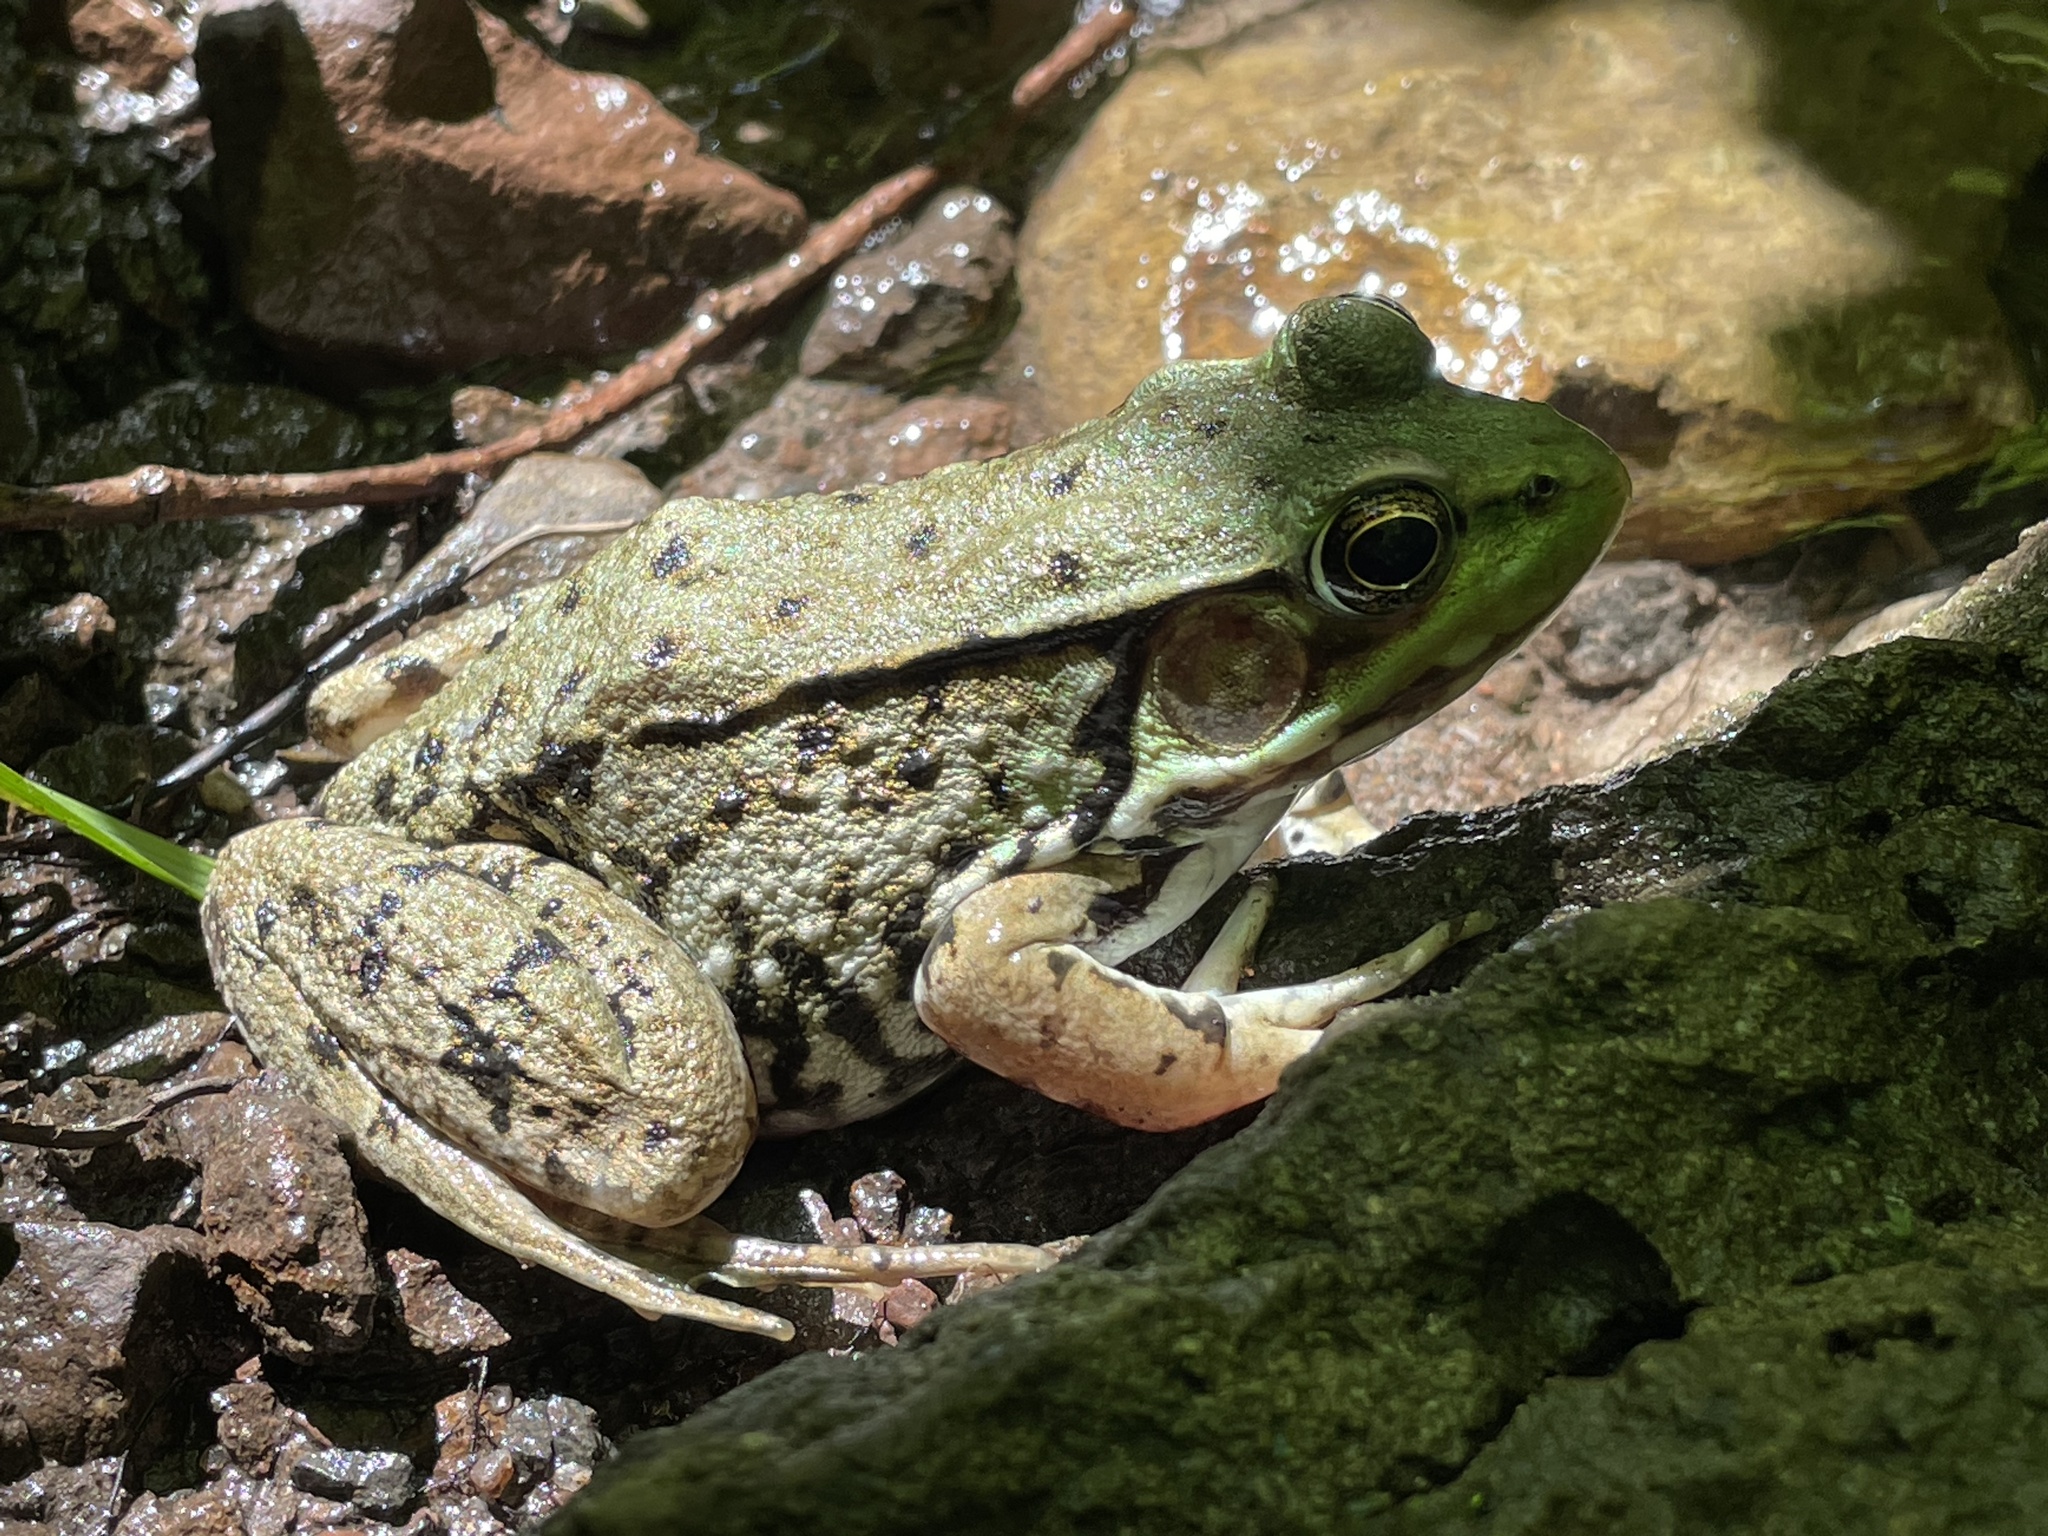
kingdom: Animalia
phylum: Chordata
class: Amphibia
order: Anura
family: Ranidae
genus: Lithobates
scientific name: Lithobates clamitans
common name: Green frog
